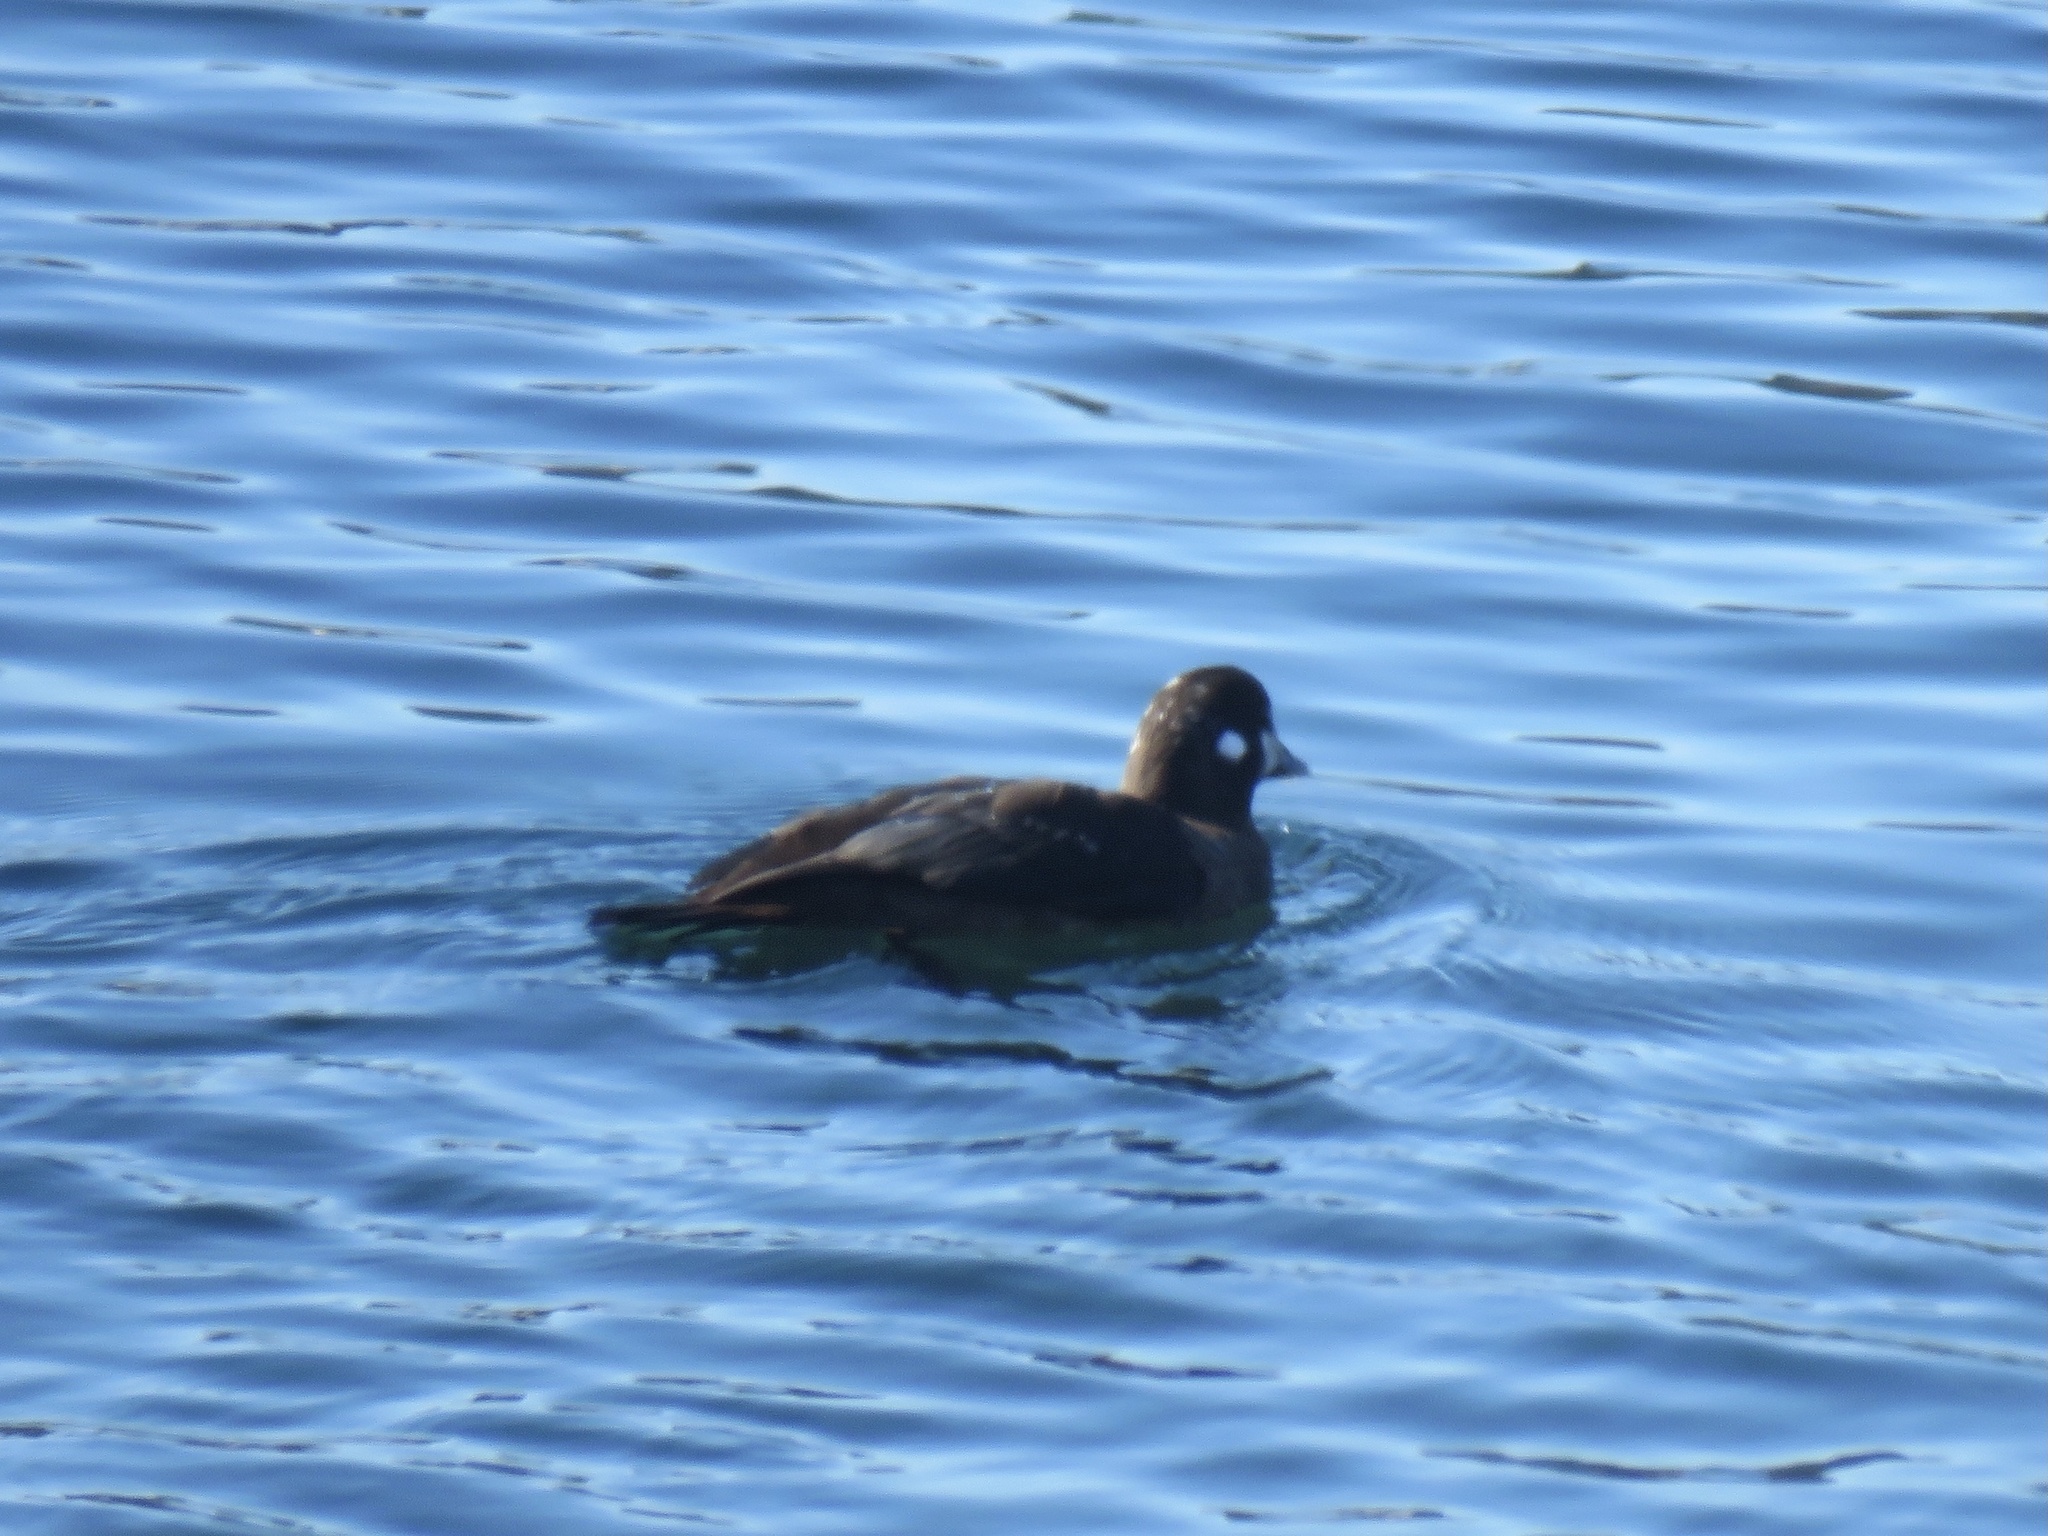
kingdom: Animalia
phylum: Chordata
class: Aves
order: Anseriformes
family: Anatidae
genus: Histrionicus
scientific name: Histrionicus histrionicus
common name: Harlequin duck
